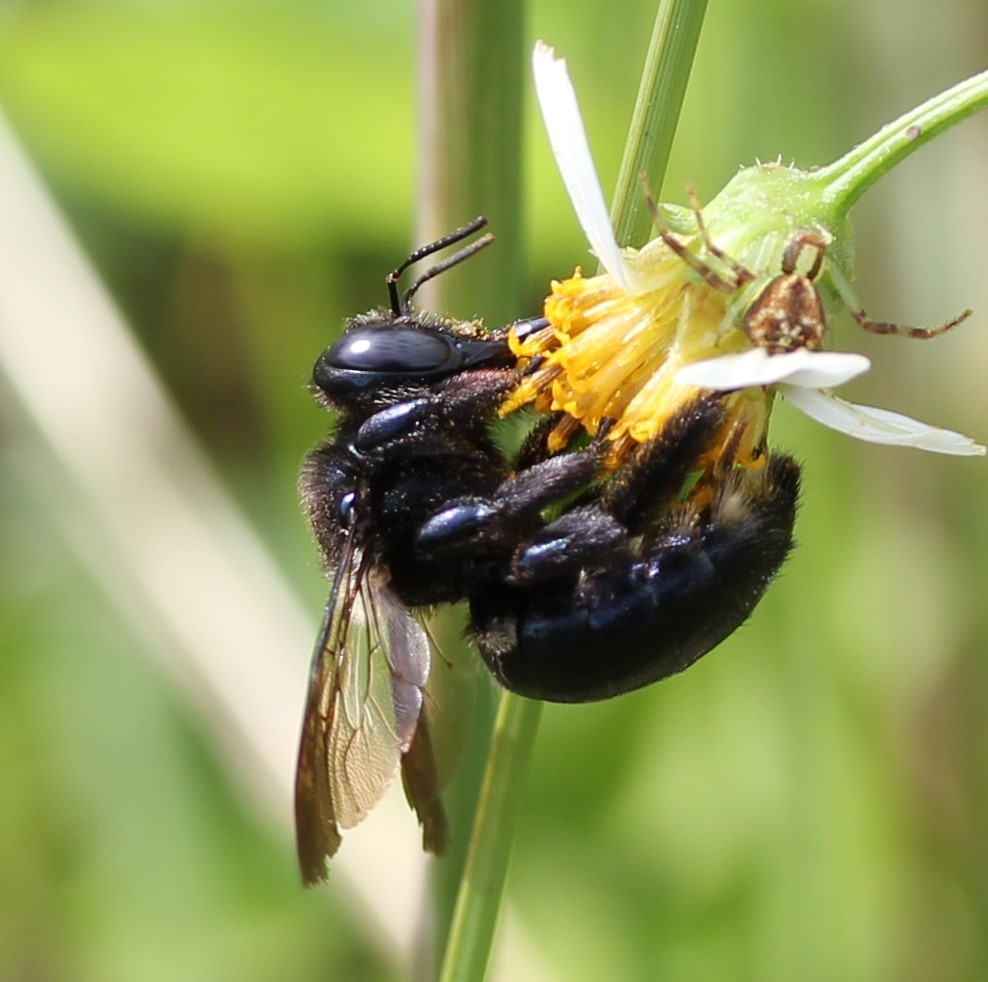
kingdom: Animalia
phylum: Arthropoda
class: Insecta
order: Hymenoptera
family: Apidae
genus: Xylocopa
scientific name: Xylocopa micans
